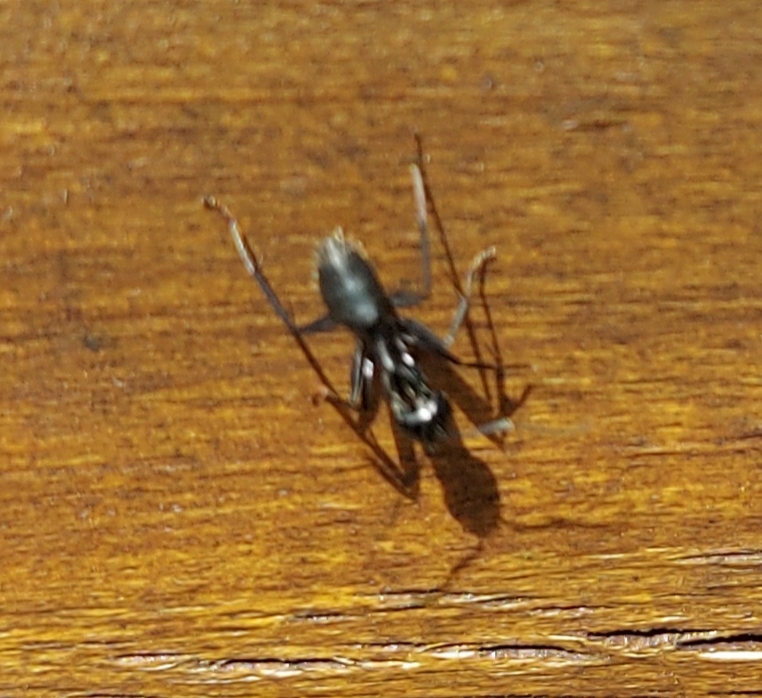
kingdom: Animalia
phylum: Arthropoda
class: Insecta
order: Hymenoptera
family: Formicidae
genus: Camponotus
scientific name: Camponotus vagus
